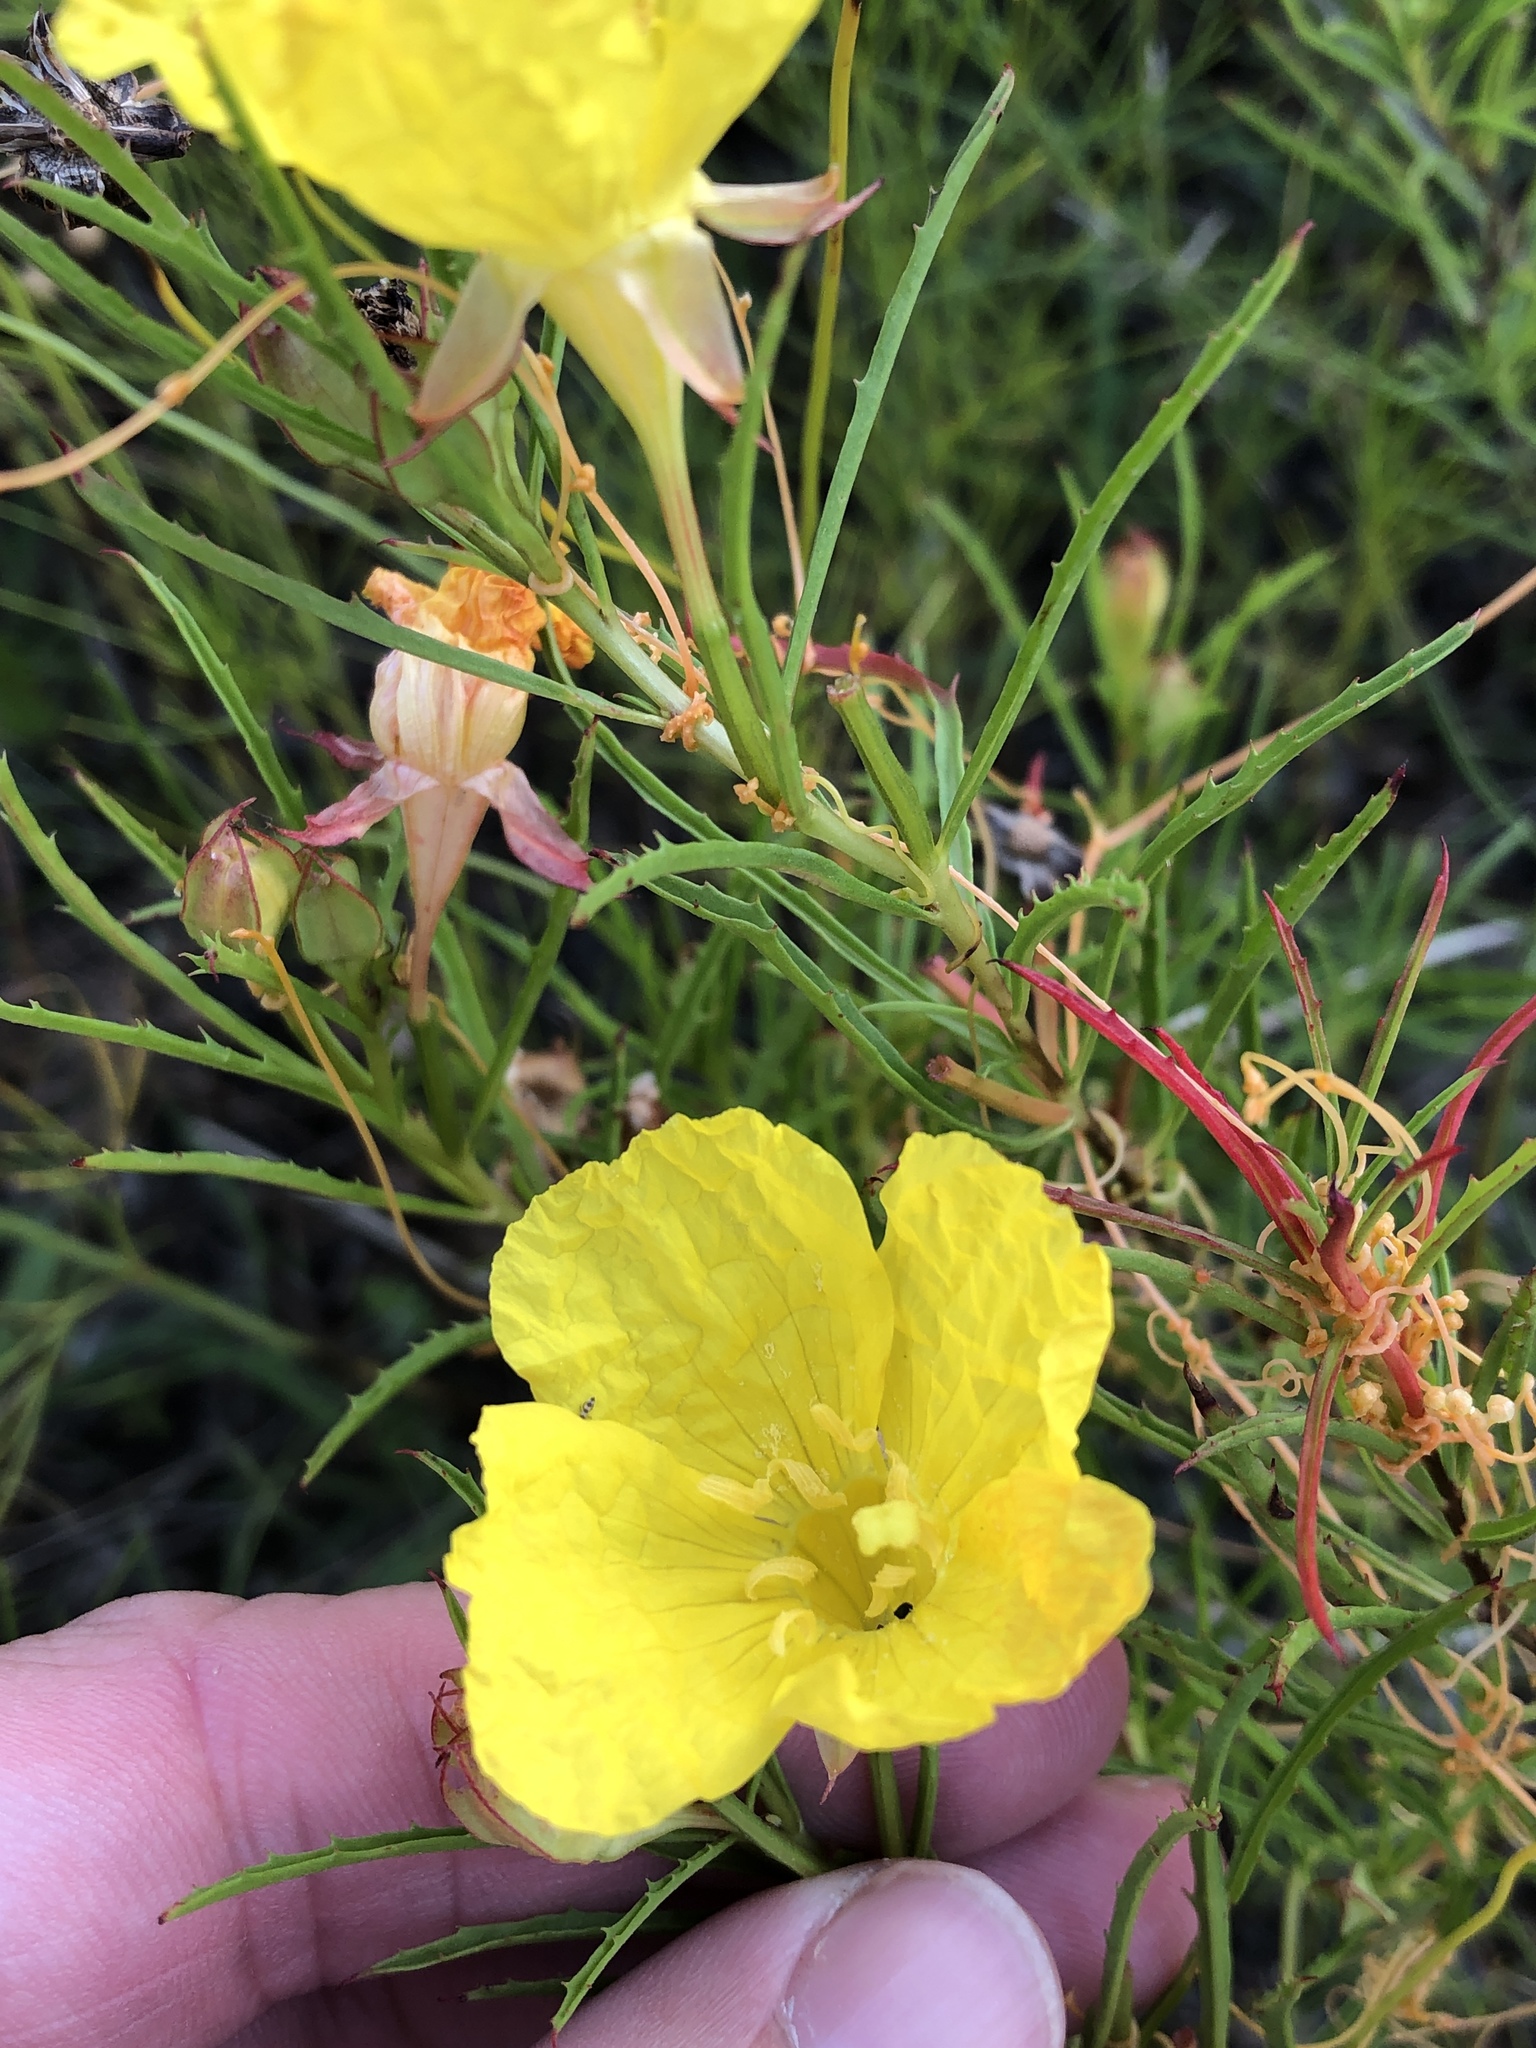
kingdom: Plantae
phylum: Tracheophyta
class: Magnoliopsida
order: Myrtales
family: Onagraceae
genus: Oenothera
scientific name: Oenothera
